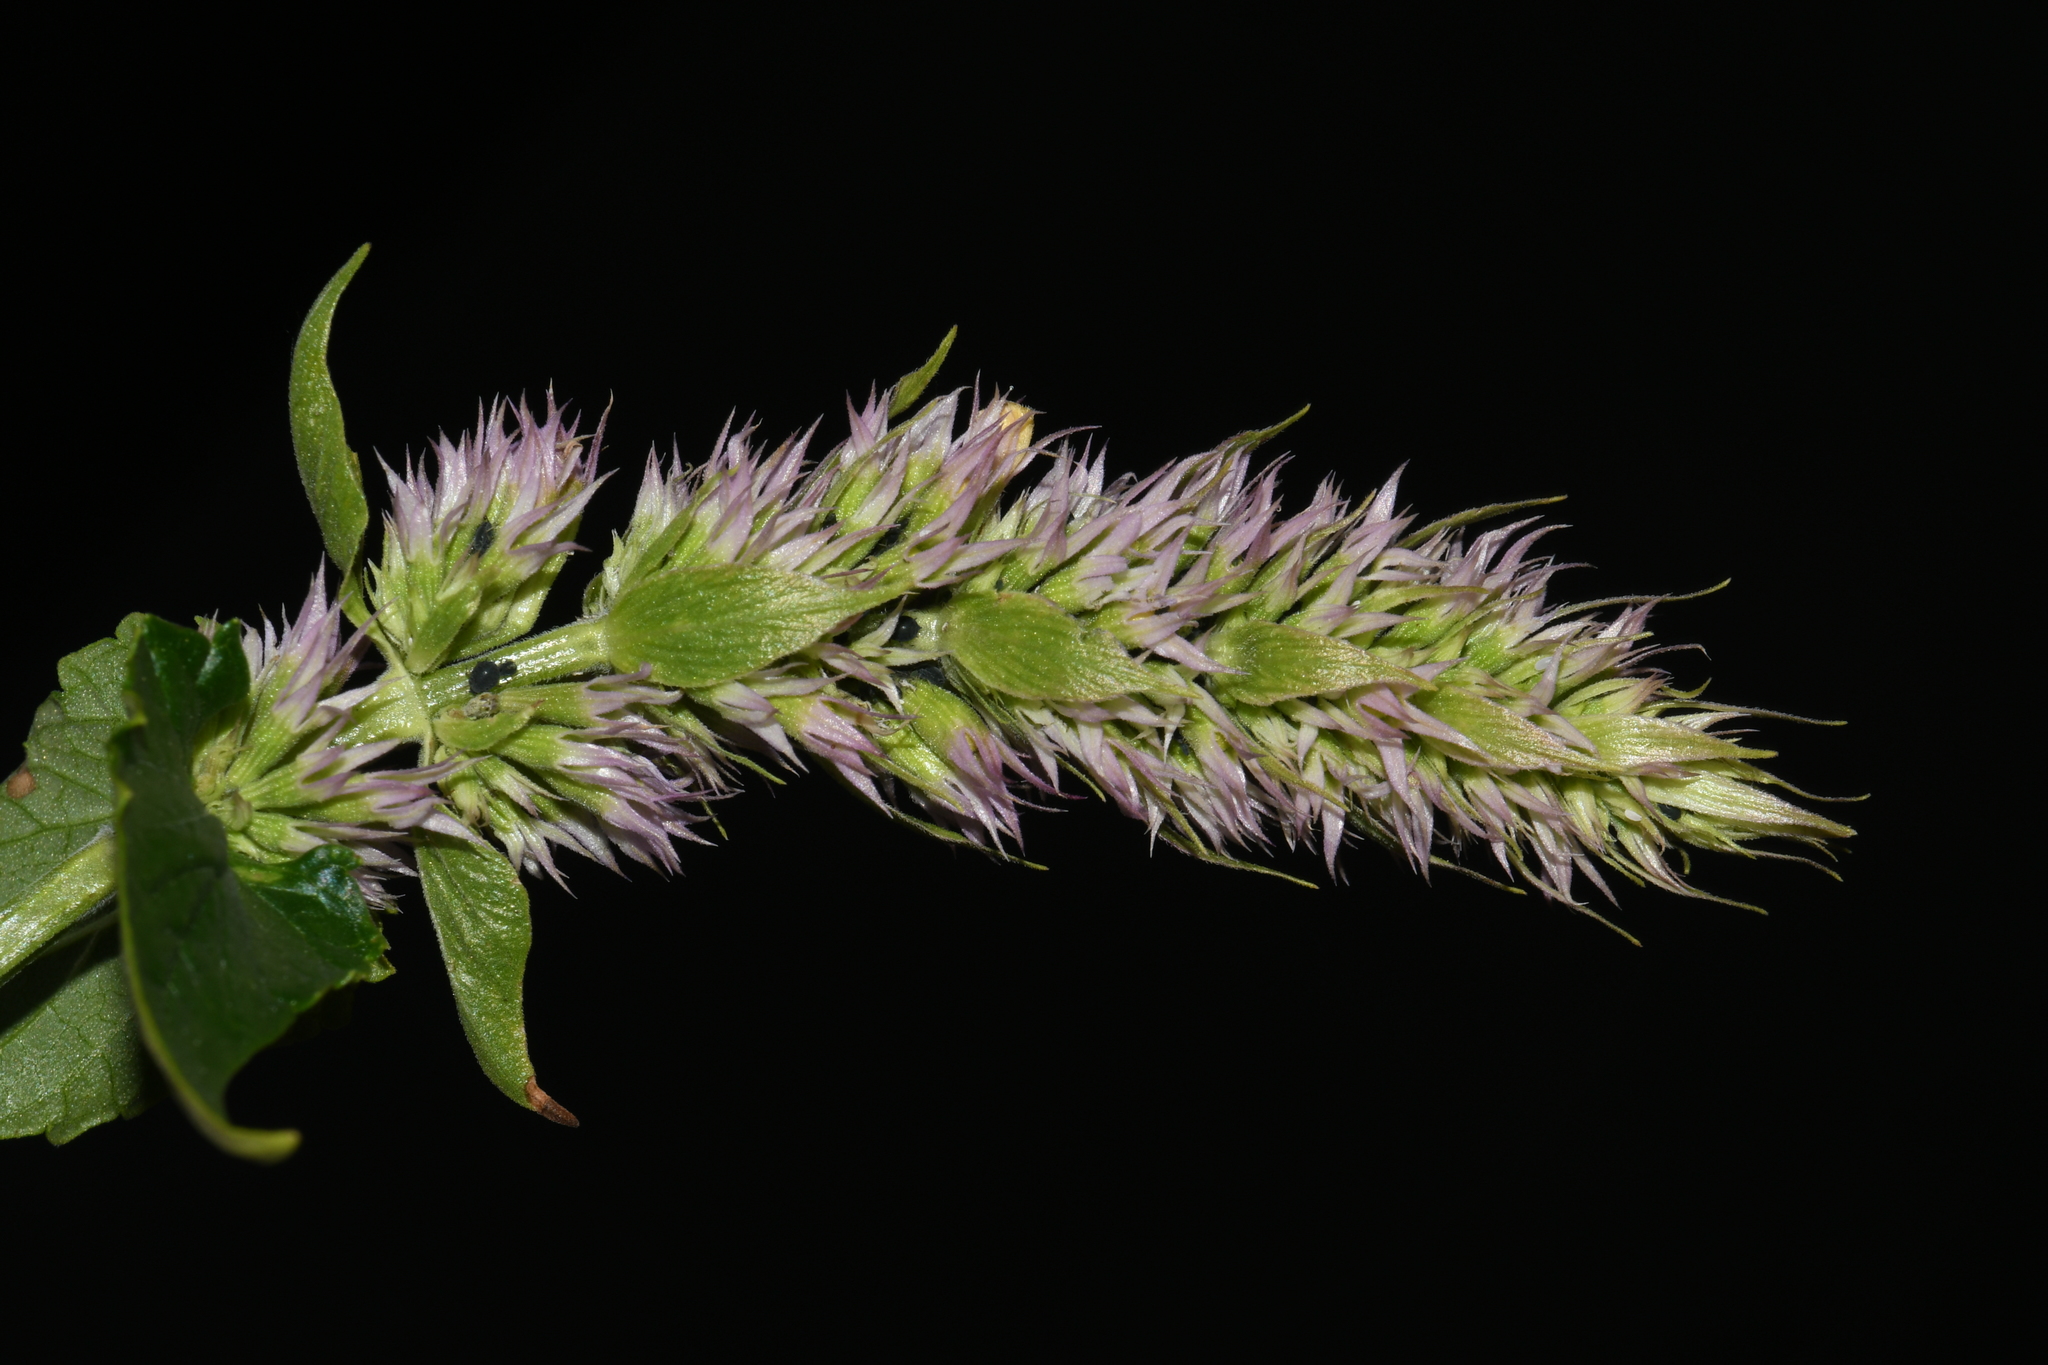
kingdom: Plantae
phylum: Tracheophyta
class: Magnoliopsida
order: Lamiales
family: Lamiaceae
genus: Agastache
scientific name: Agastache urticifolia
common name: Horsemint giant hyssop
